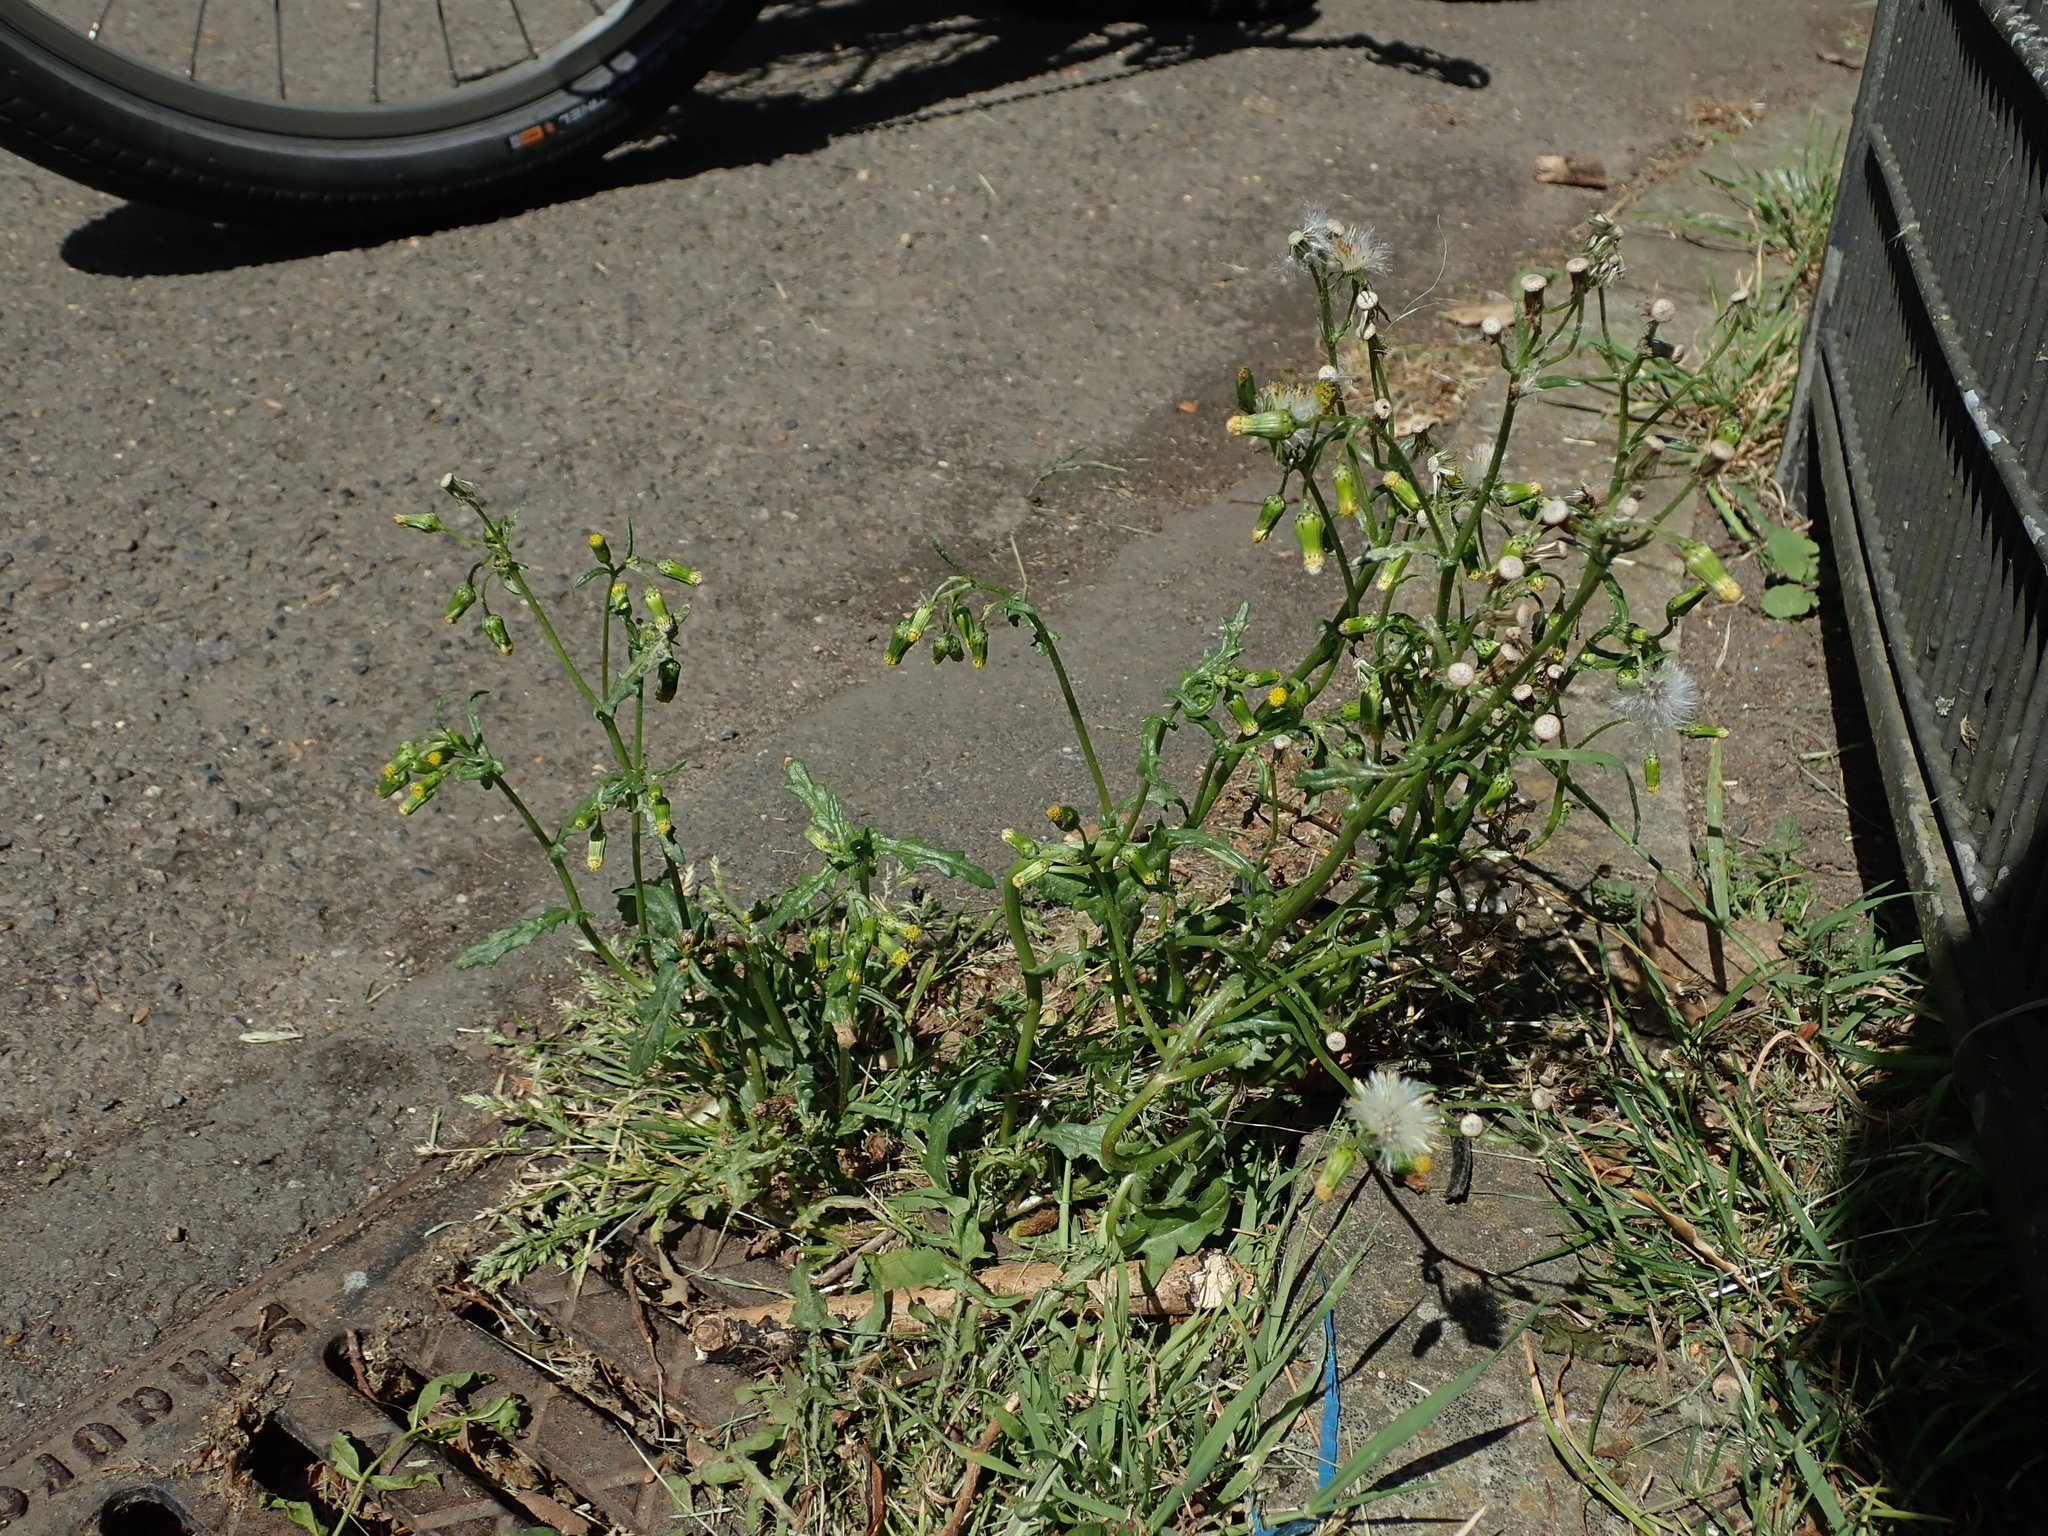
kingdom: Plantae
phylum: Tracheophyta
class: Magnoliopsida
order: Asterales
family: Asteraceae
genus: Senecio
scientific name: Senecio vulgaris
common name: Old-man-in-the-spring
